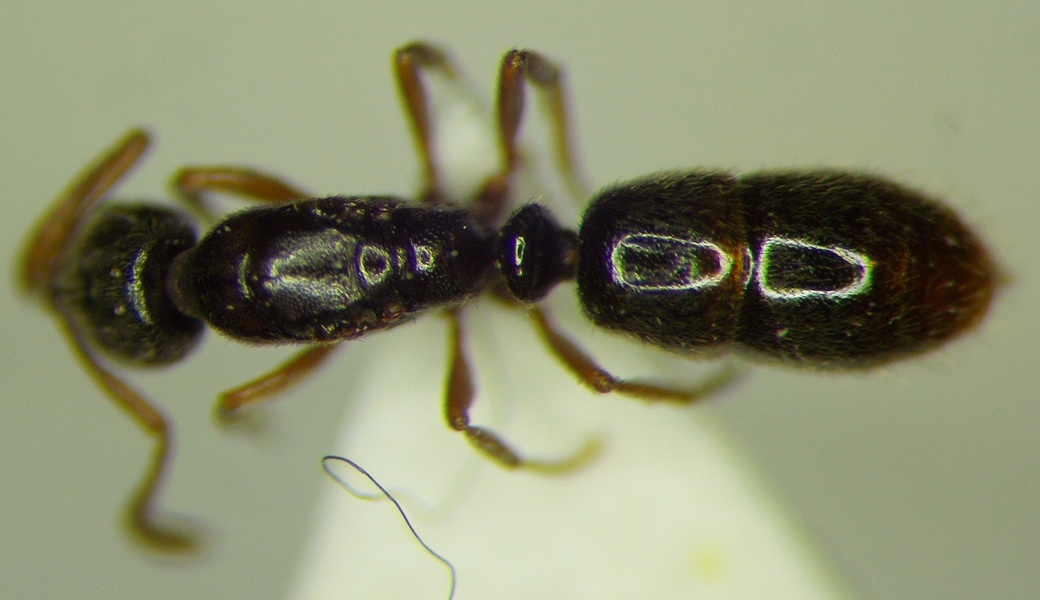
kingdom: Animalia
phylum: Arthropoda
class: Insecta
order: Hymenoptera
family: Formicidae
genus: Ponera
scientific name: Ponera coarctata
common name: Indolent ant
